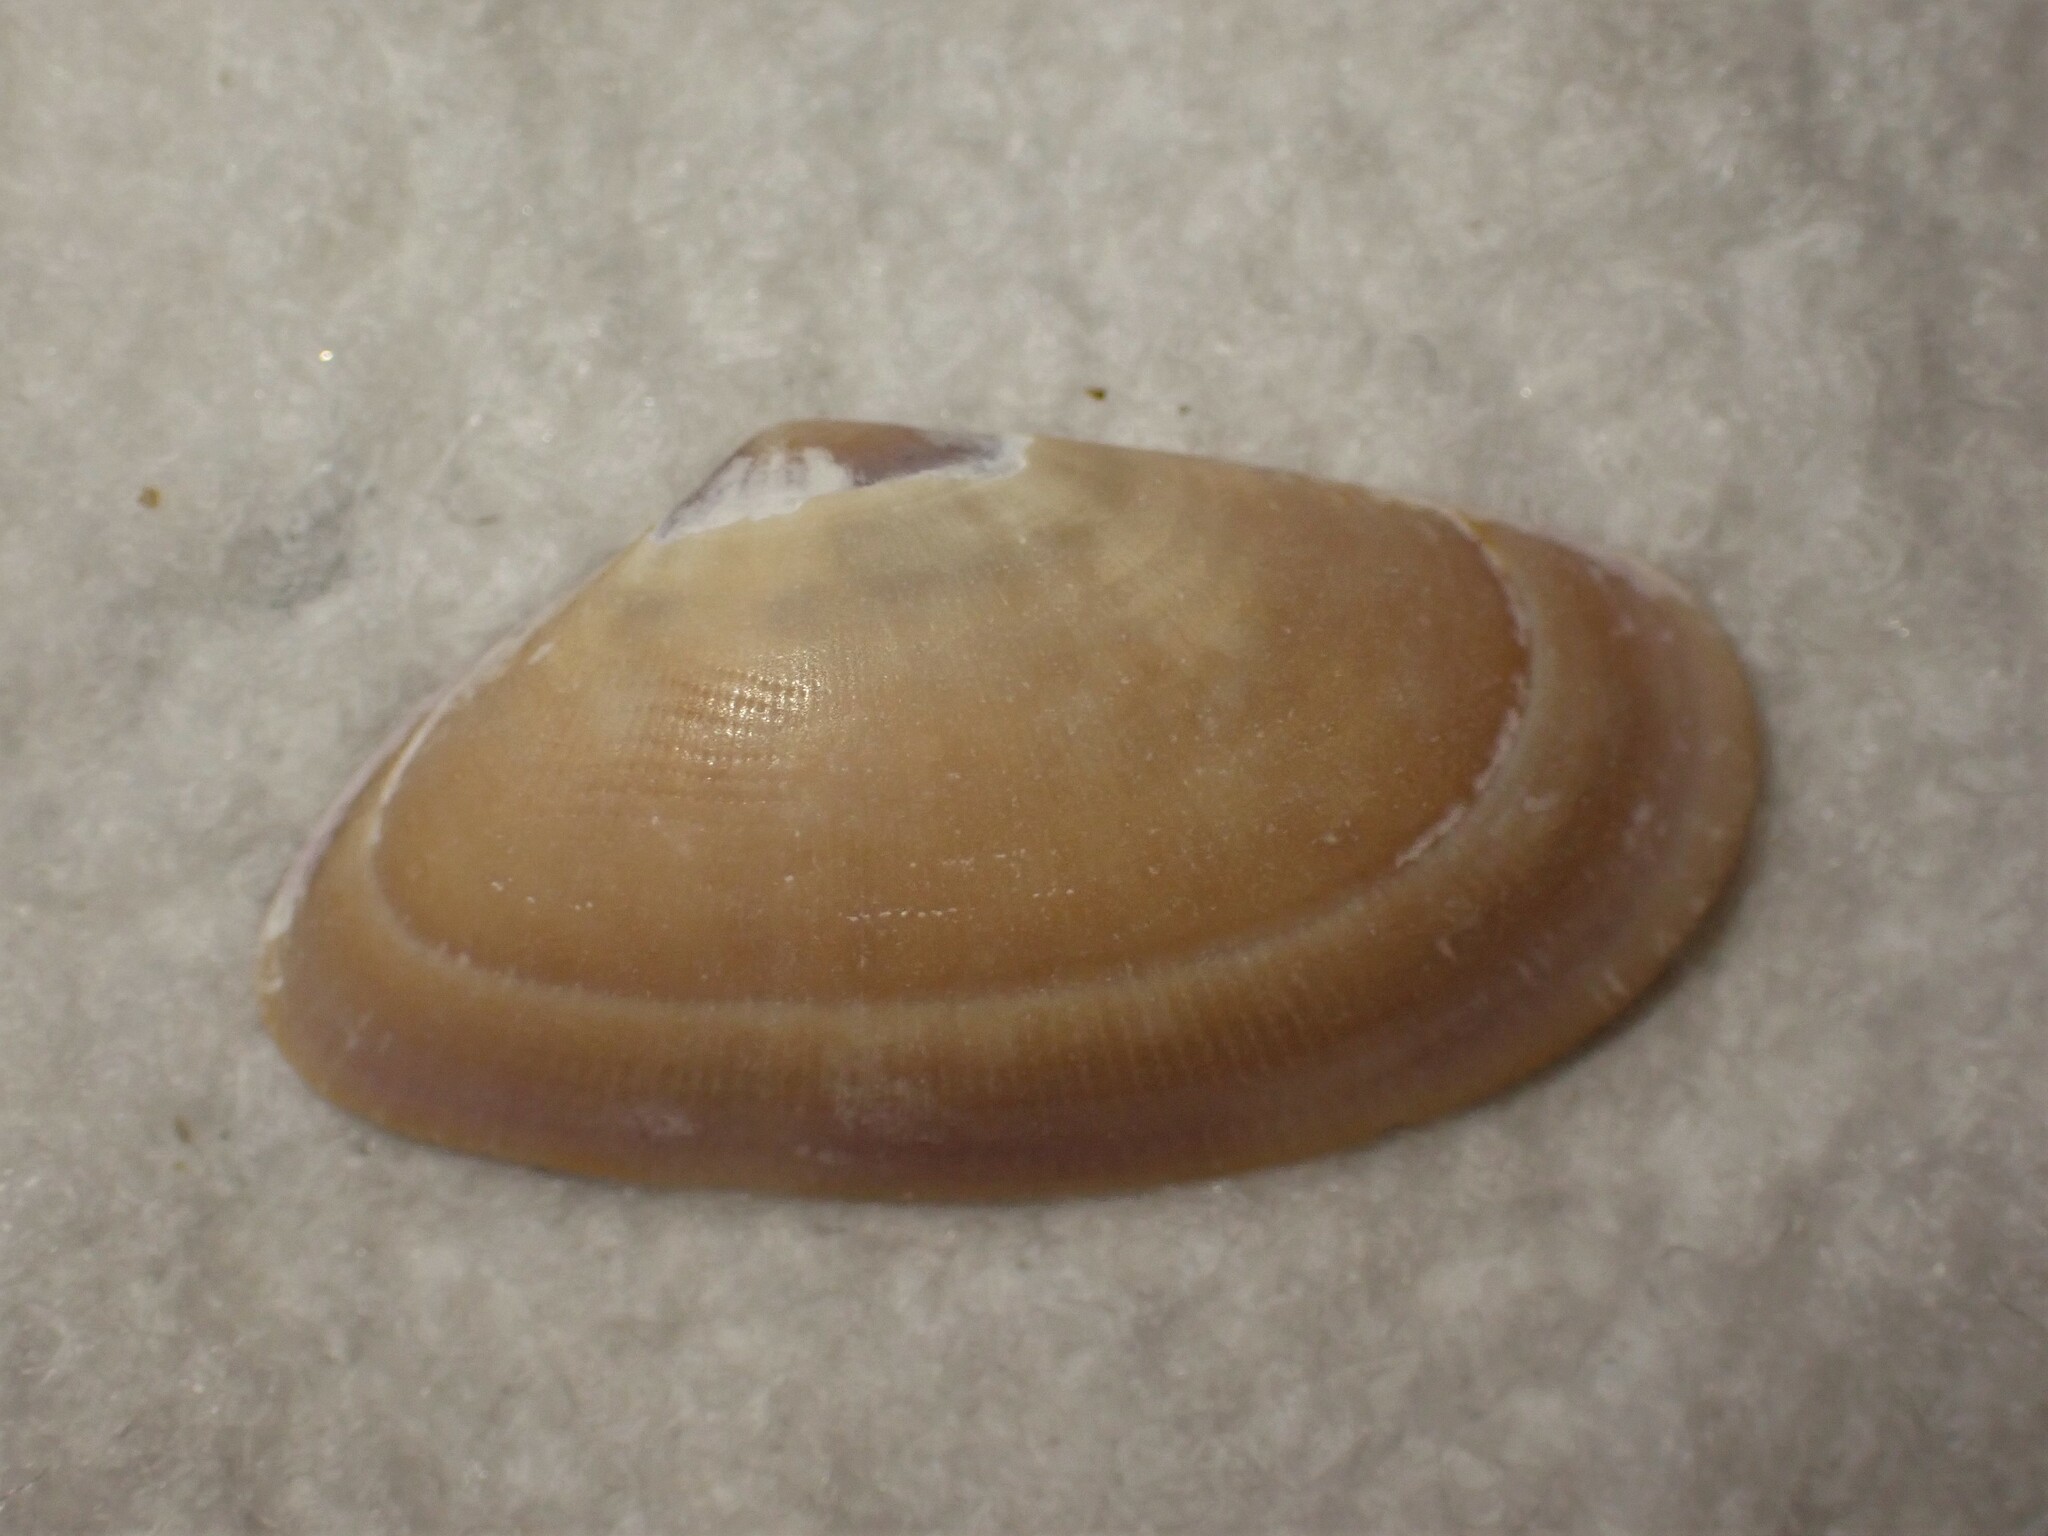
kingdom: Animalia
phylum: Mollusca
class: Bivalvia
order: Cardiida
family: Donacidae
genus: Donax
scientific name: Donax vittatus
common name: Banded wedge-shell
